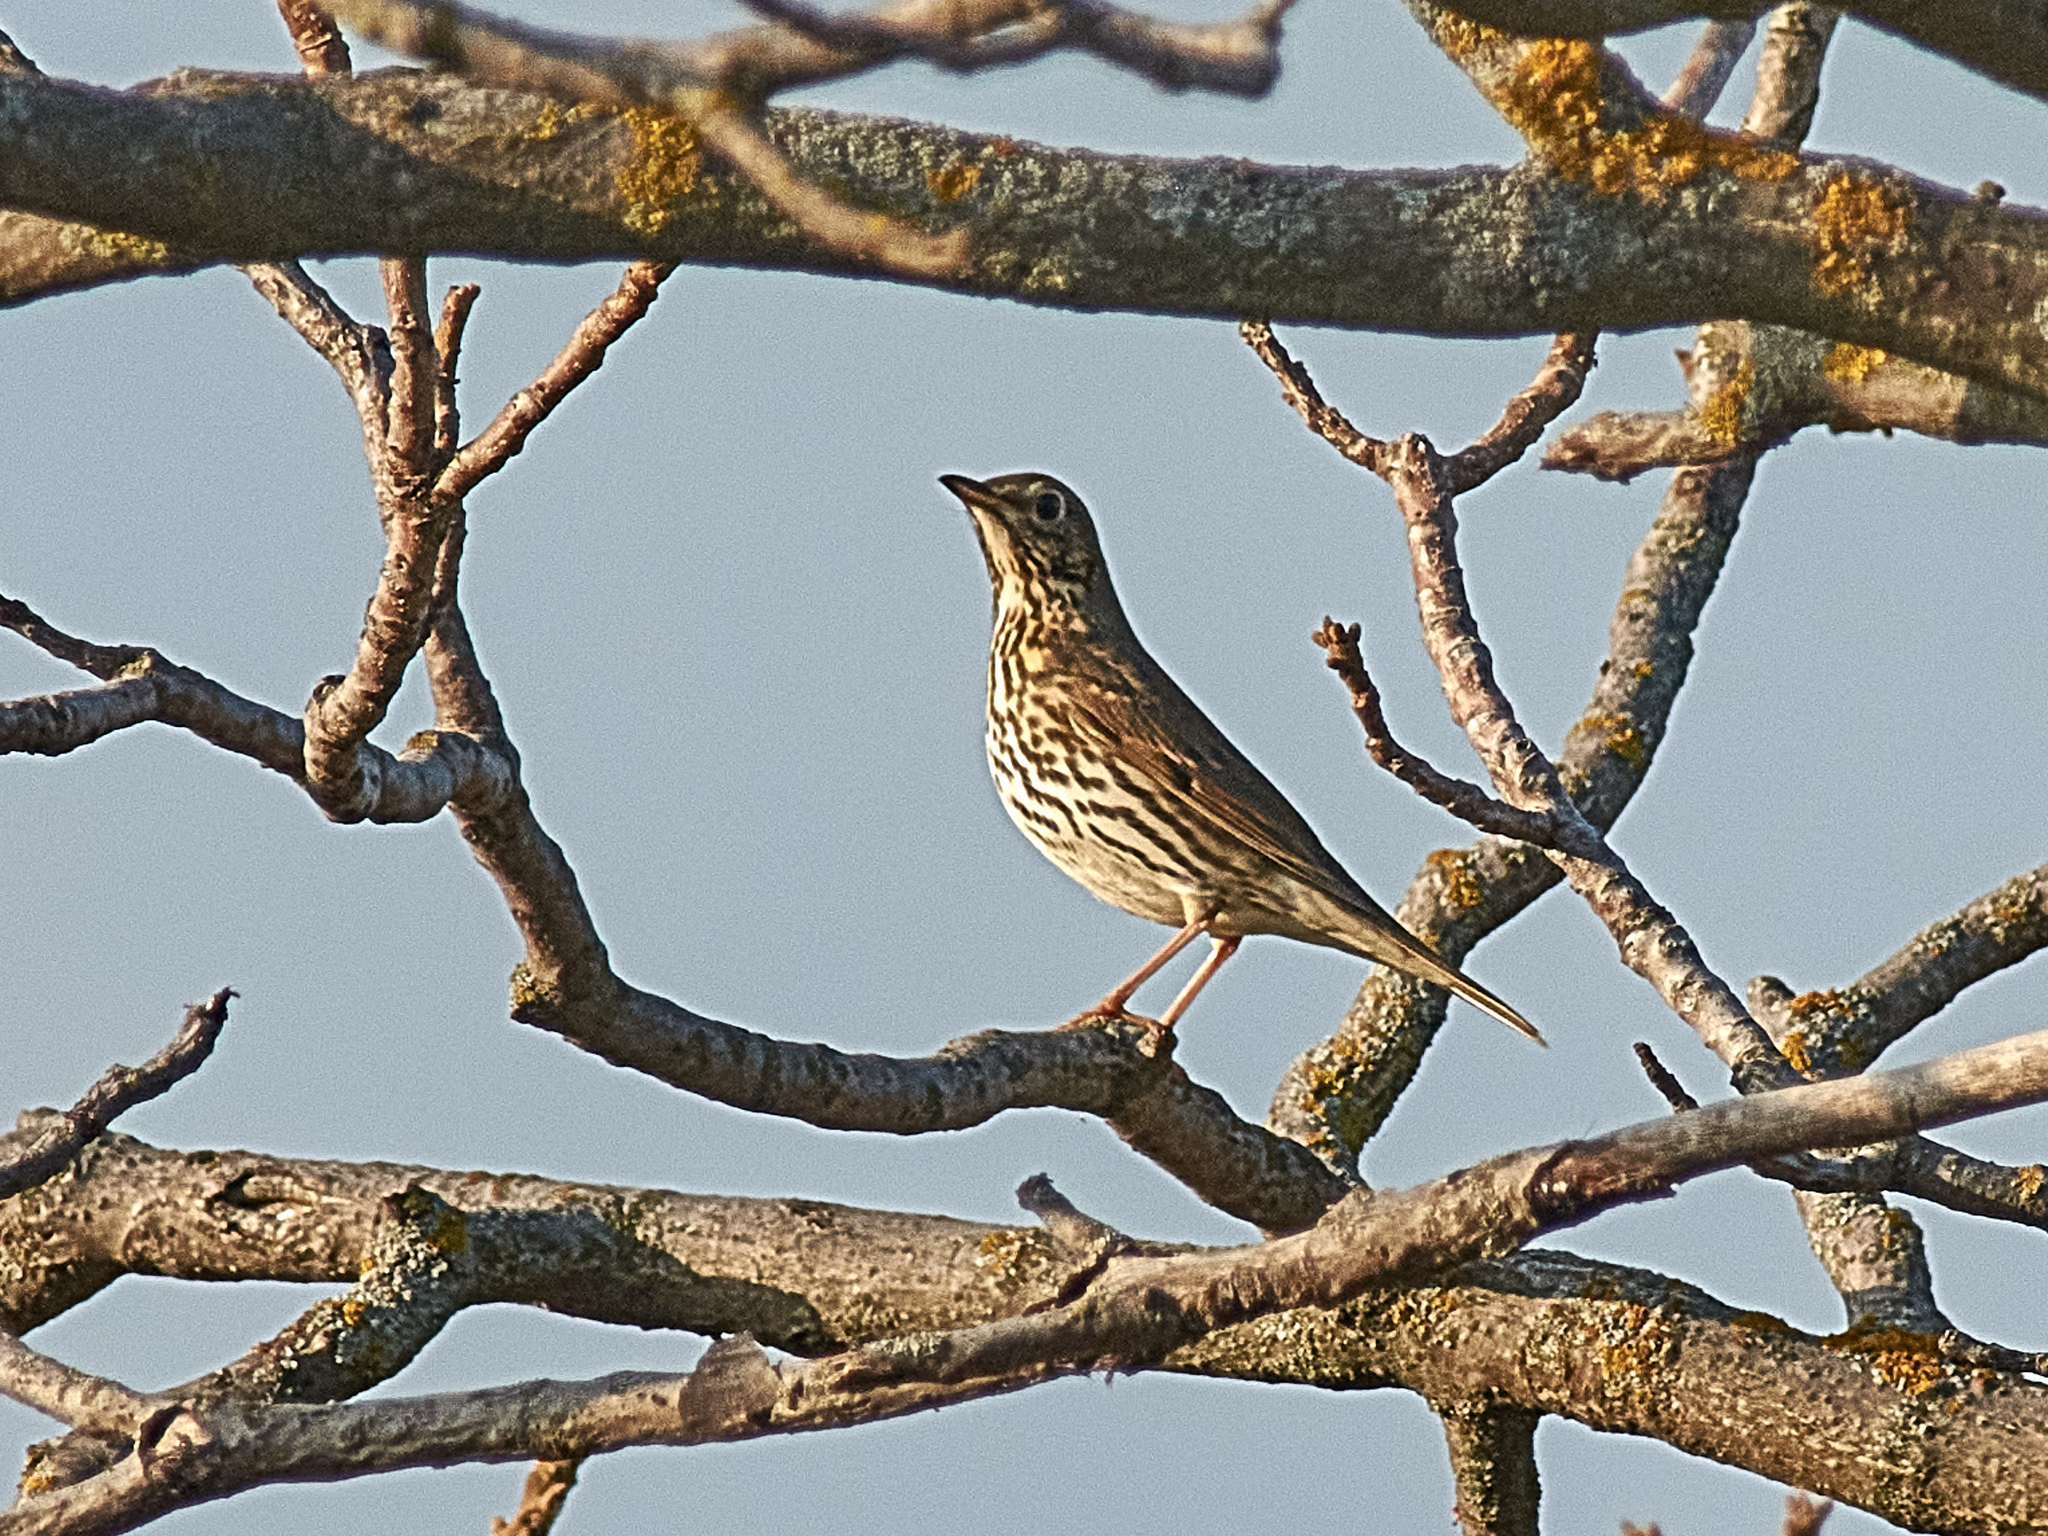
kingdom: Animalia
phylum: Chordata
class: Aves
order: Passeriformes
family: Turdidae
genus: Turdus
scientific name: Turdus philomelos
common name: Song thrush
